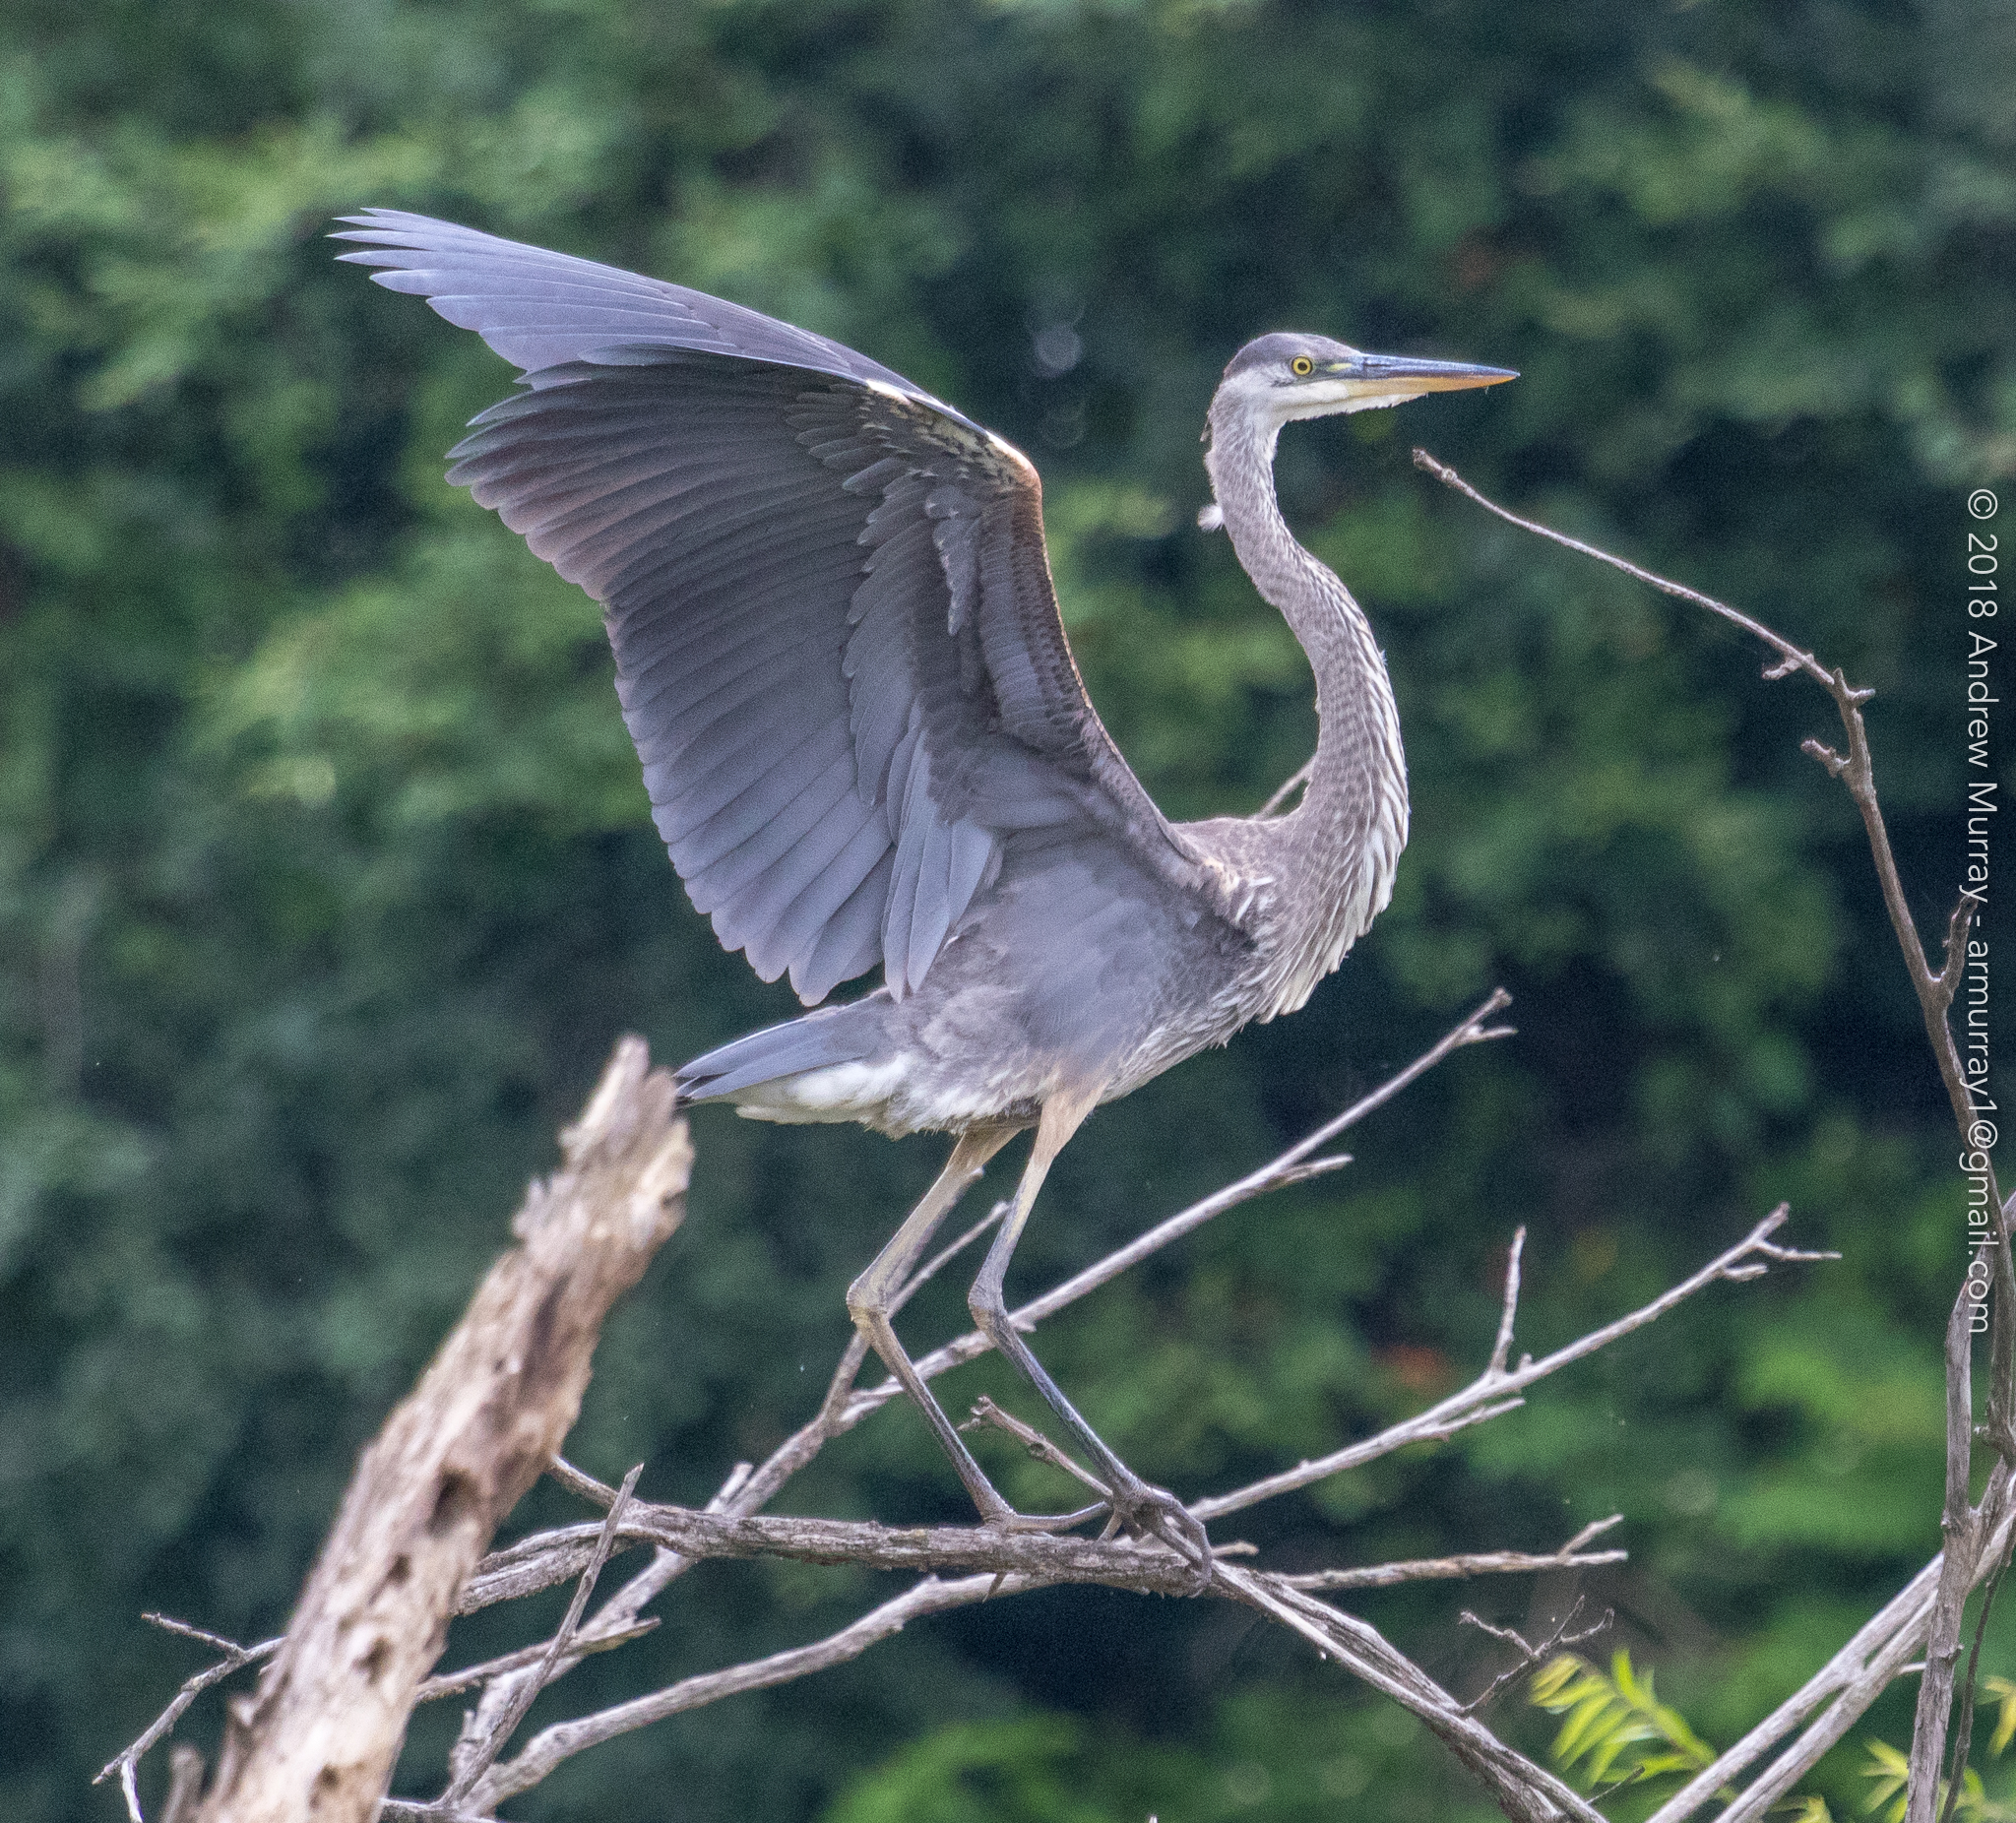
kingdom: Animalia
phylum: Chordata
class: Aves
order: Pelecaniformes
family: Ardeidae
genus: Ardea
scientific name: Ardea herodias
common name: Great blue heron
